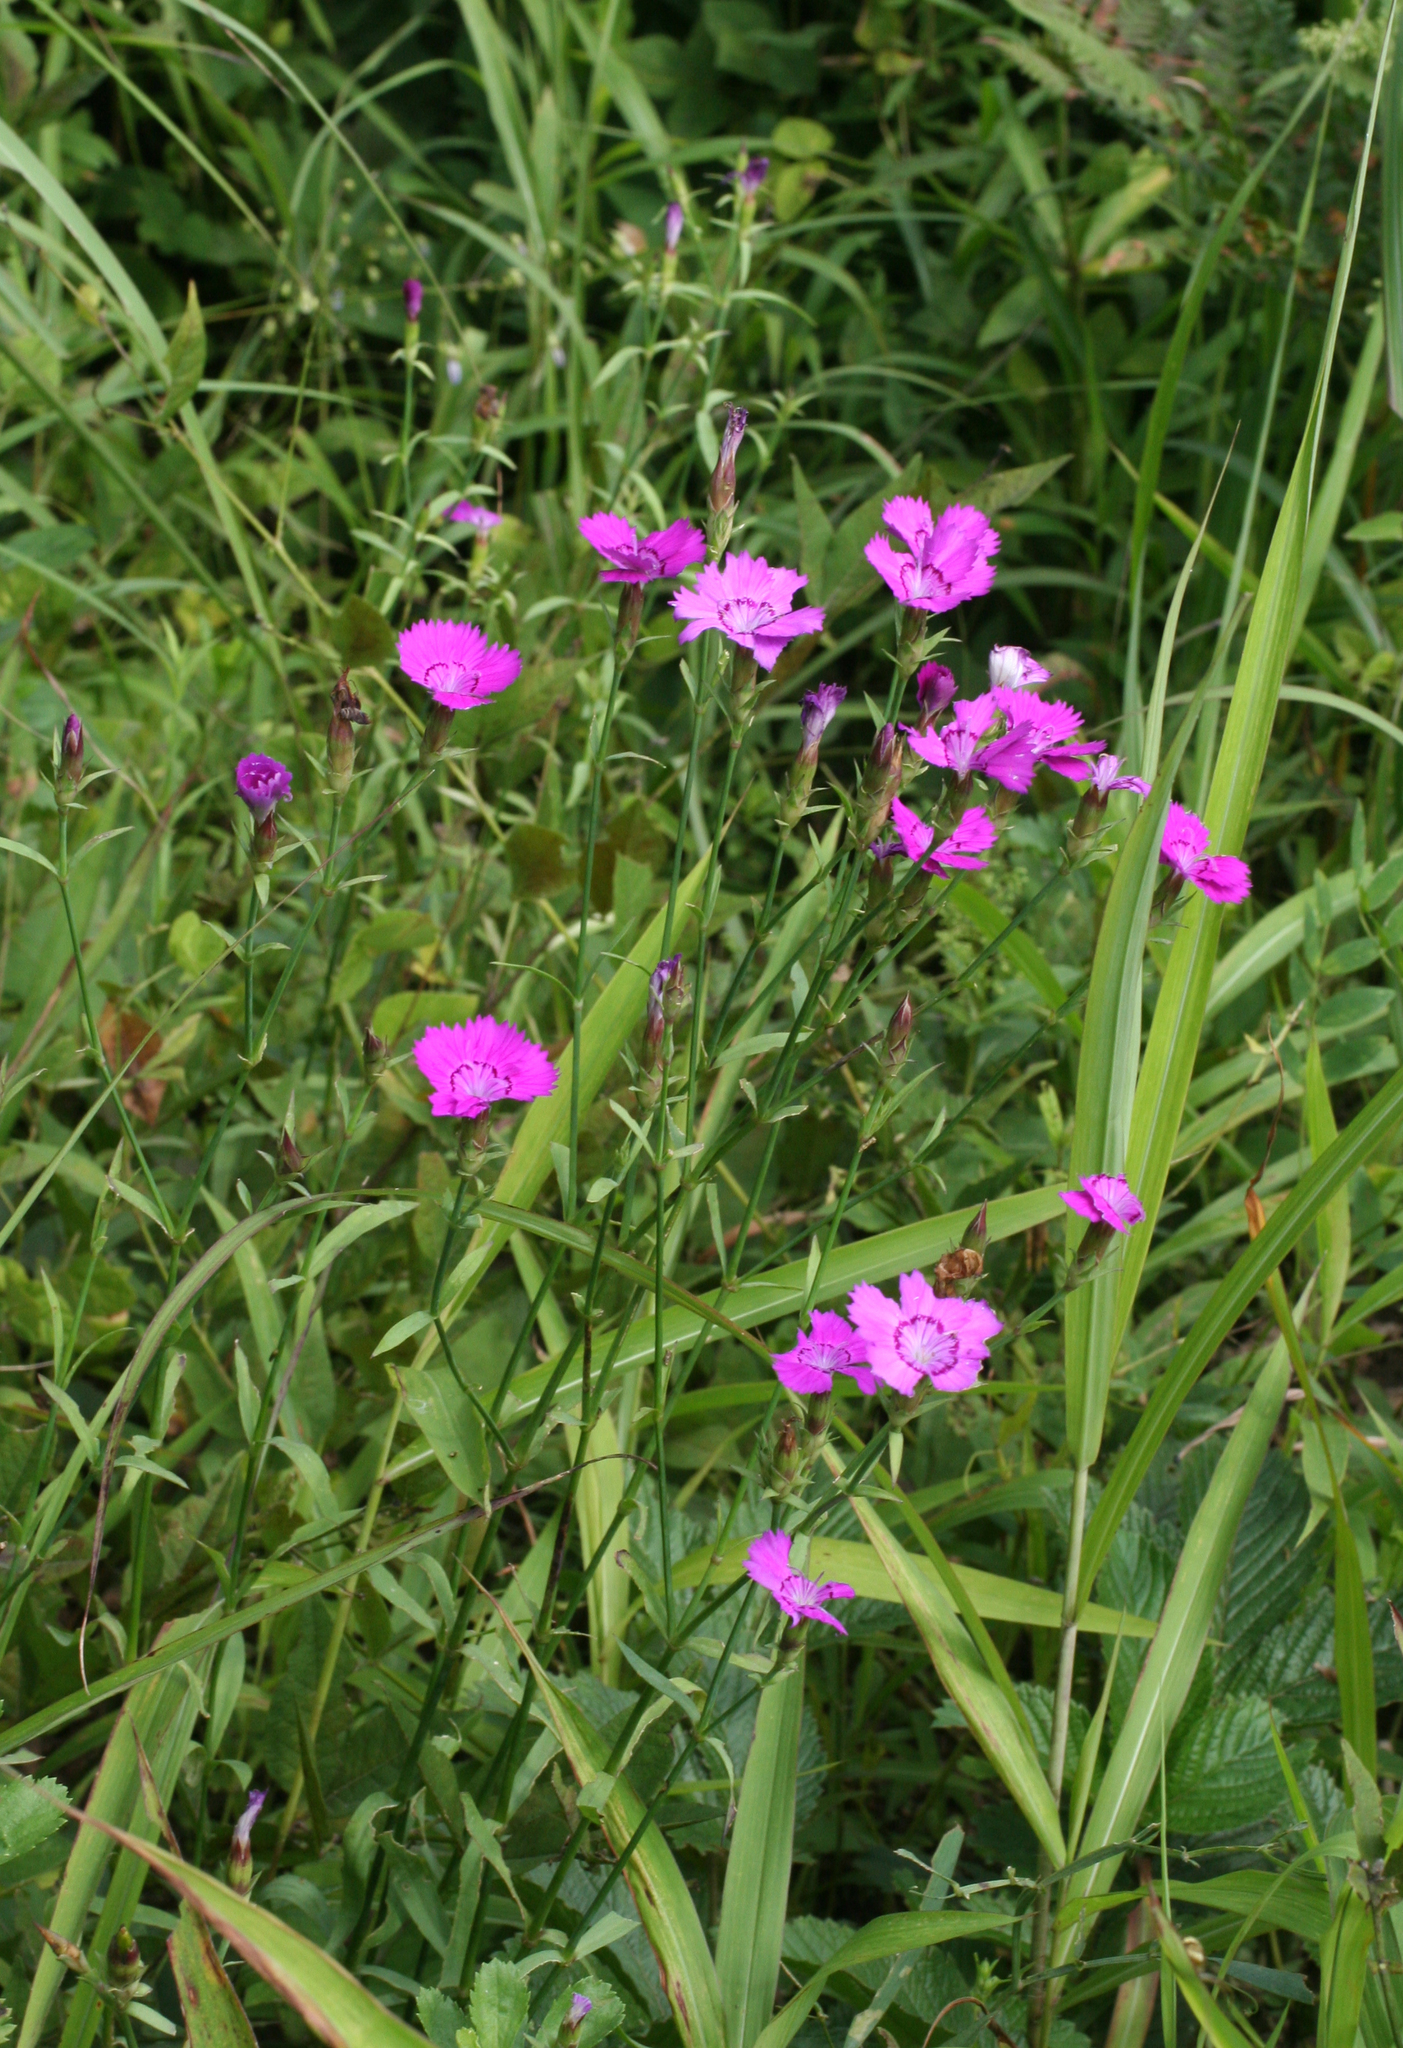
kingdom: Plantae
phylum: Tracheophyta
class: Magnoliopsida
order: Caryophyllales
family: Caryophyllaceae
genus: Dianthus
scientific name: Dianthus chinensis
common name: Rainbow pink
